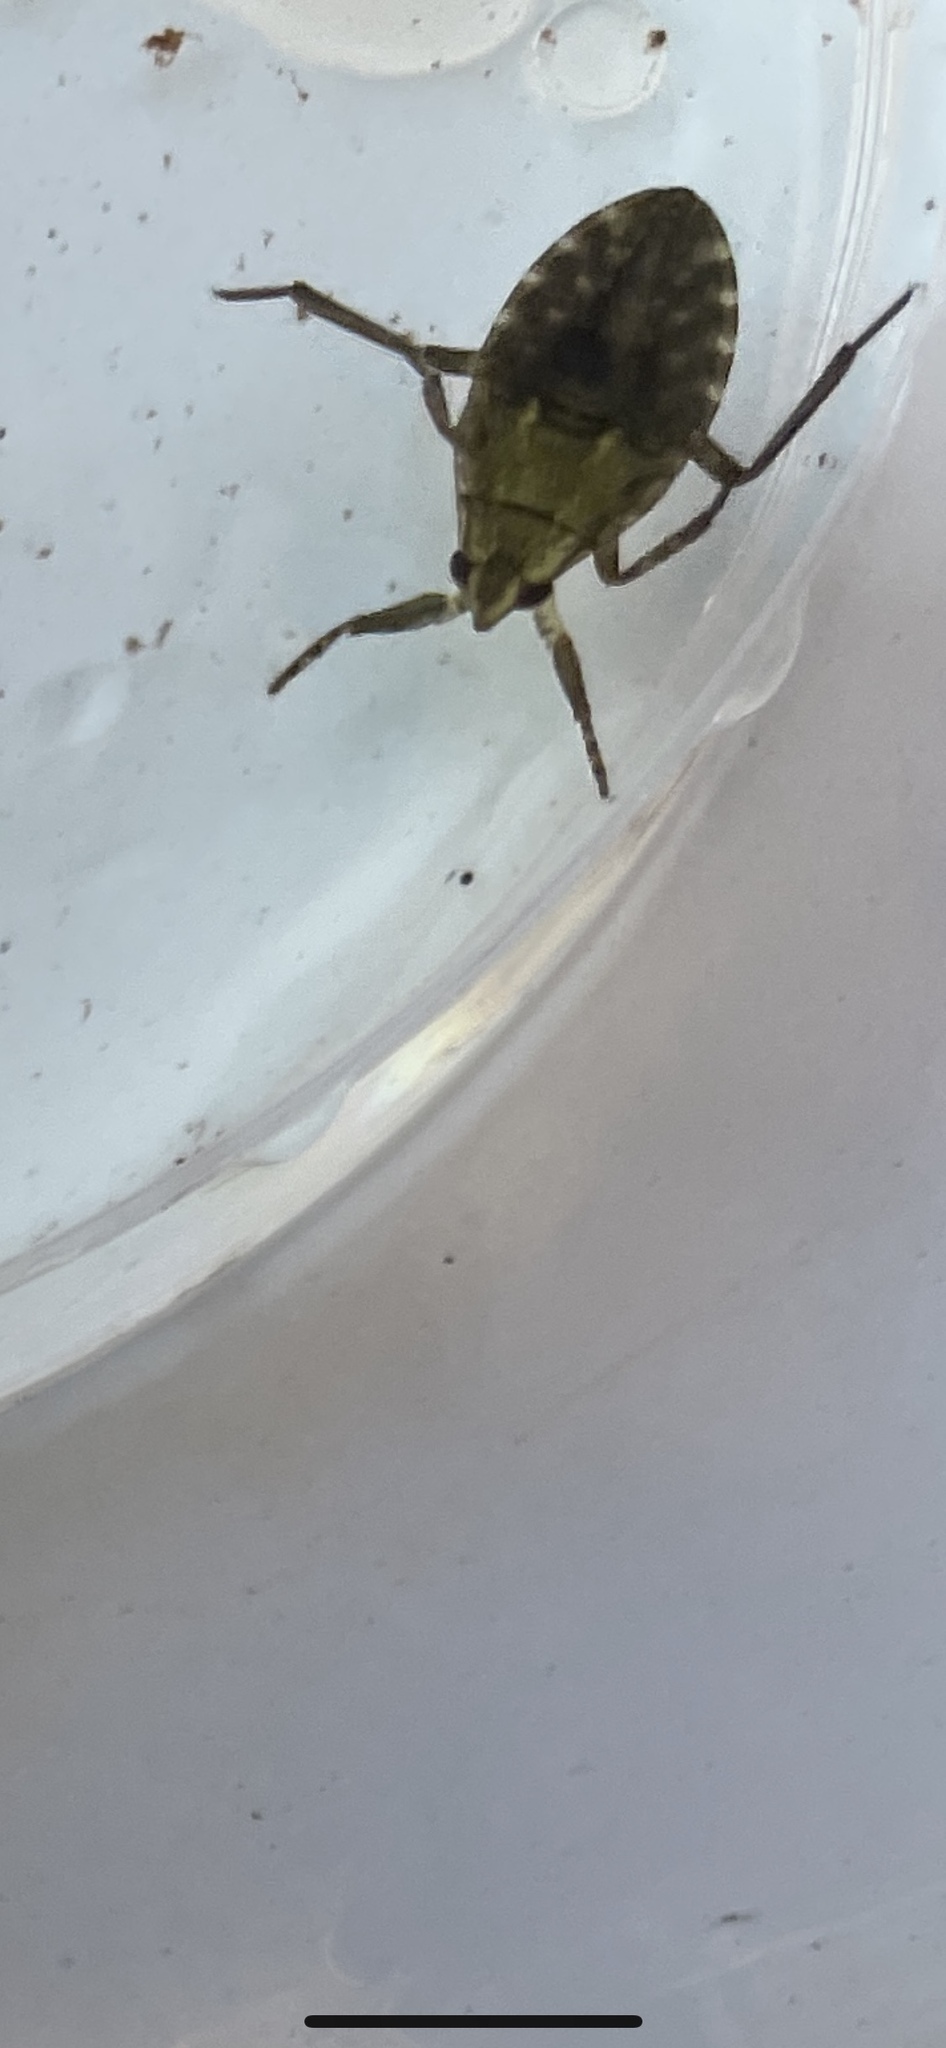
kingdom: Animalia
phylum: Arthropoda
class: Insecta
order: Hemiptera
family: Belostomatidae
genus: Belostoma
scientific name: Belostoma
